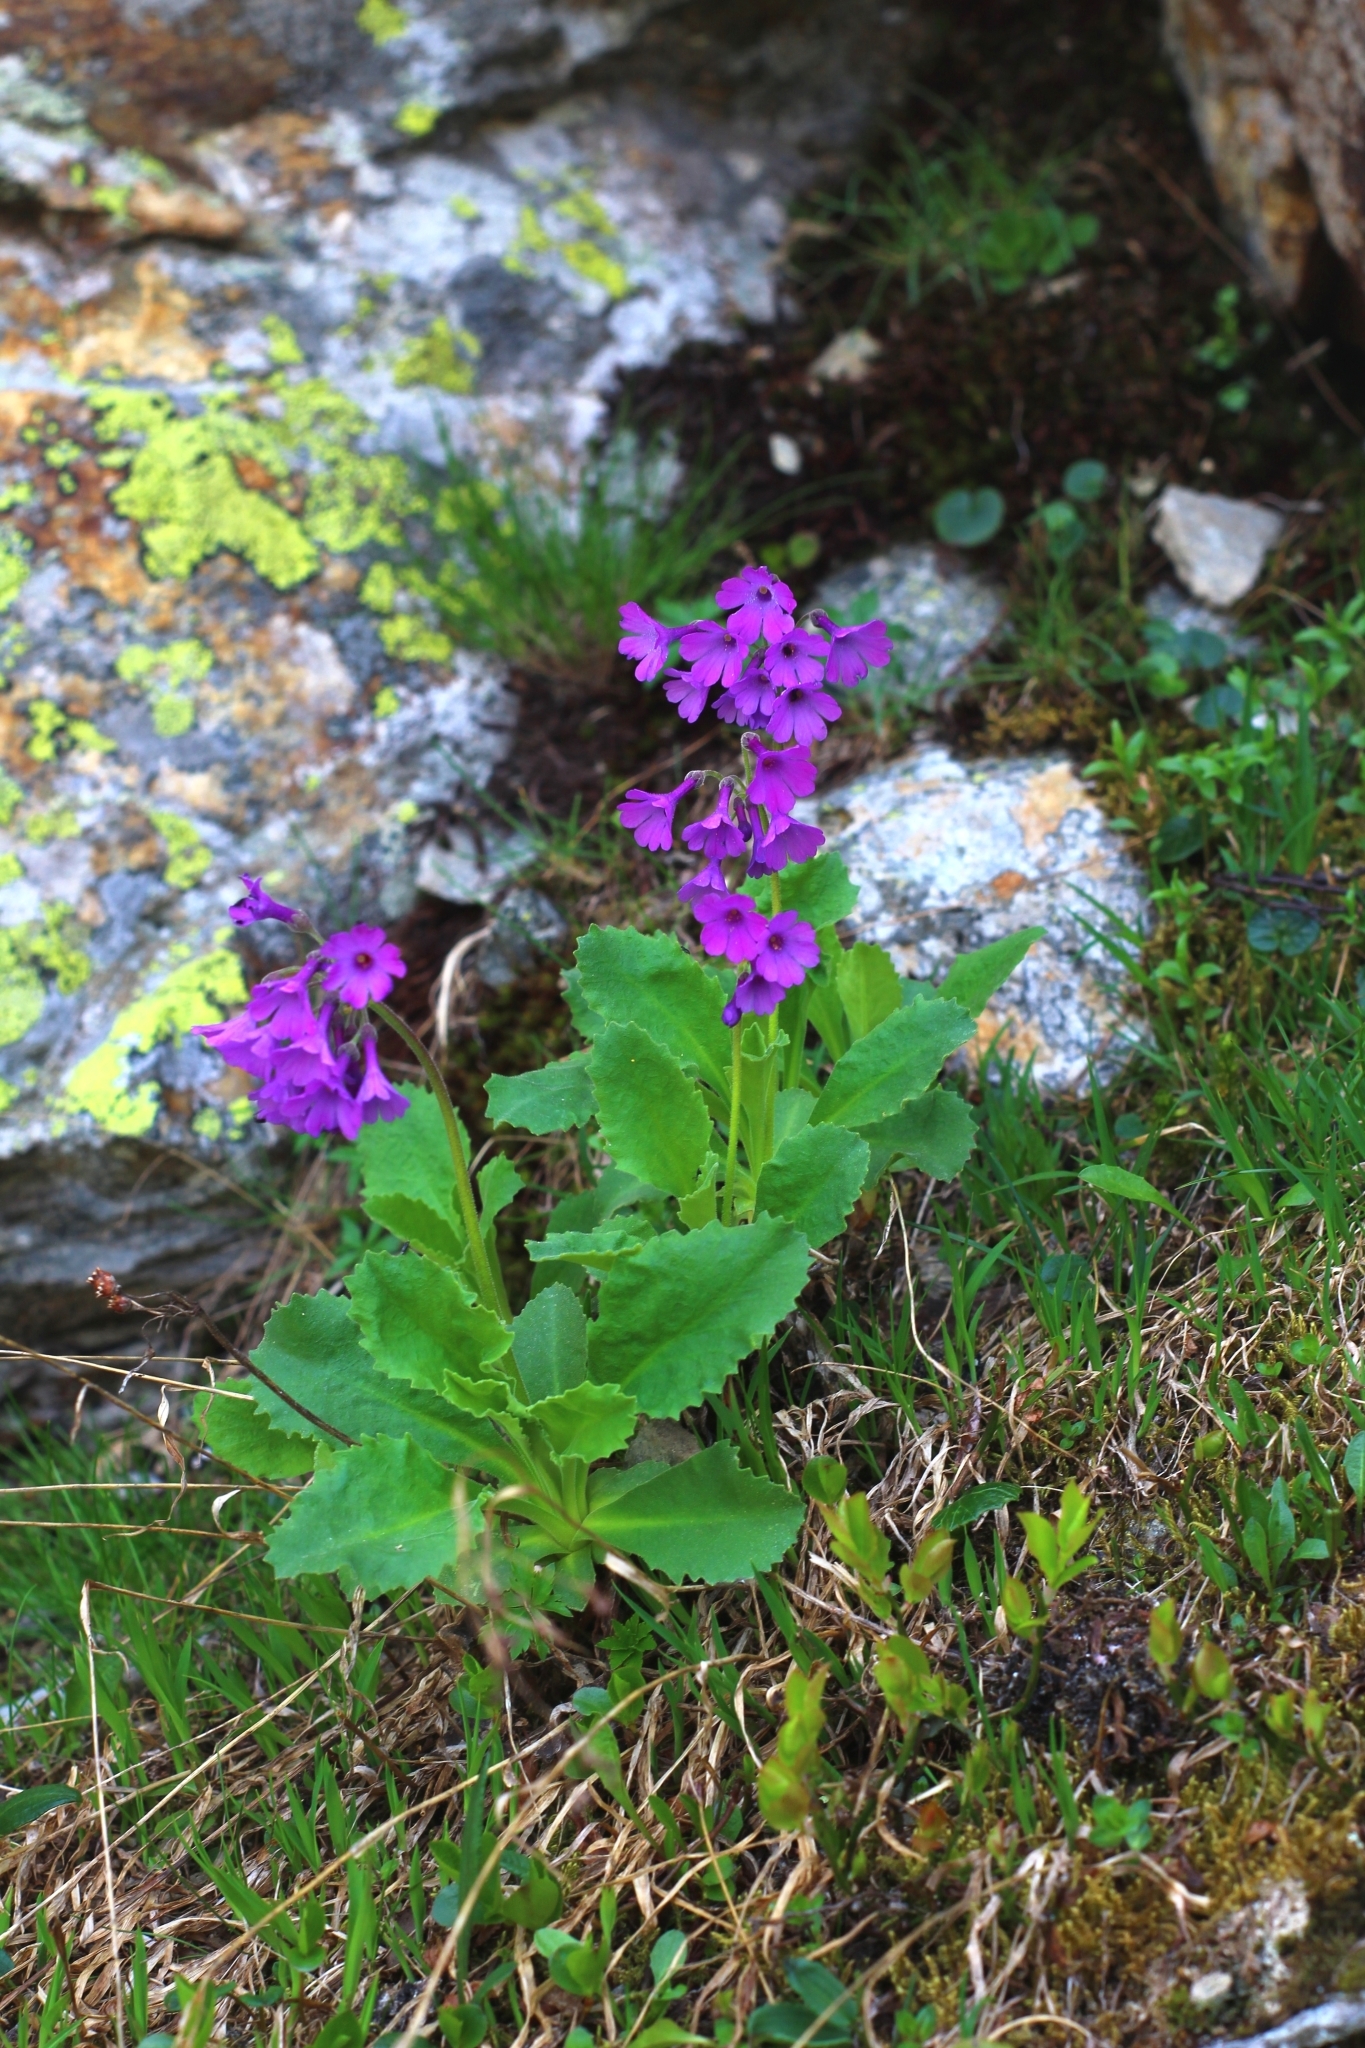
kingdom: Plantae
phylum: Tracheophyta
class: Magnoliopsida
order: Ericales
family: Primulaceae
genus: Primula
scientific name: Primula latifolia
